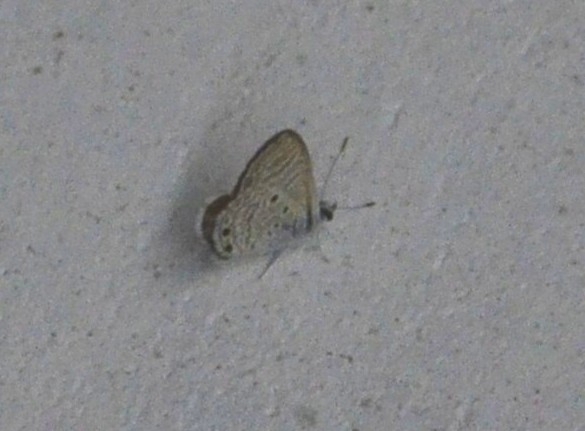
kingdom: Animalia
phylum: Arthropoda
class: Insecta
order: Lepidoptera
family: Lycaenidae
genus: Azanus
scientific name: Azanus ubaldus
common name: Desert babul blue
